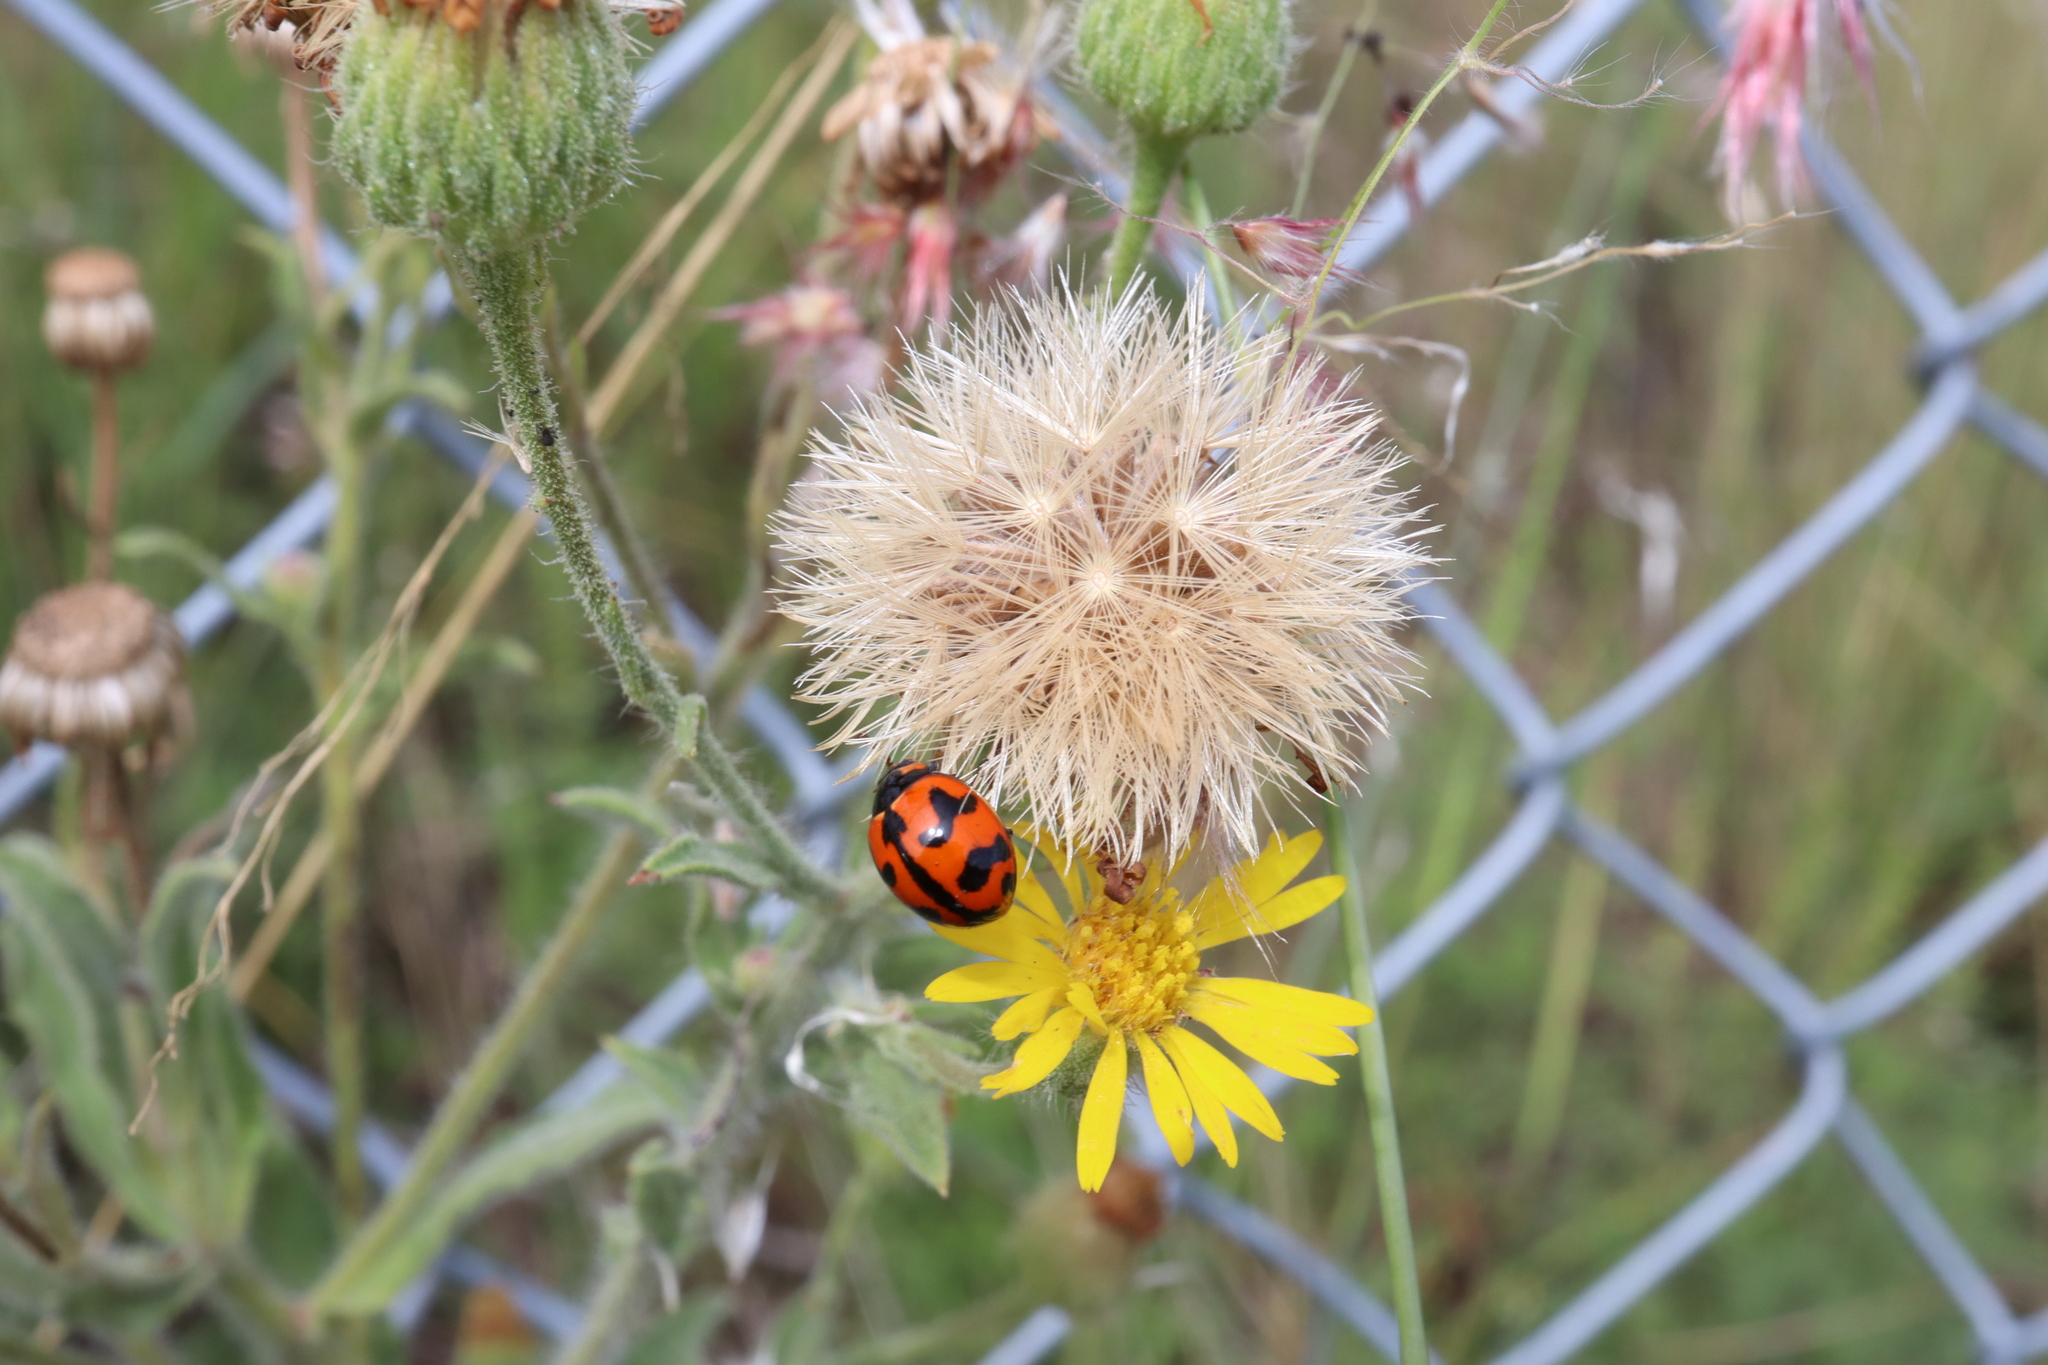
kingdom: Animalia
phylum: Arthropoda
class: Insecta
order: Coleoptera
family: Coccinellidae
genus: Coccinella
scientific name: Coccinella transversalis
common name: Transverse lady beetle
